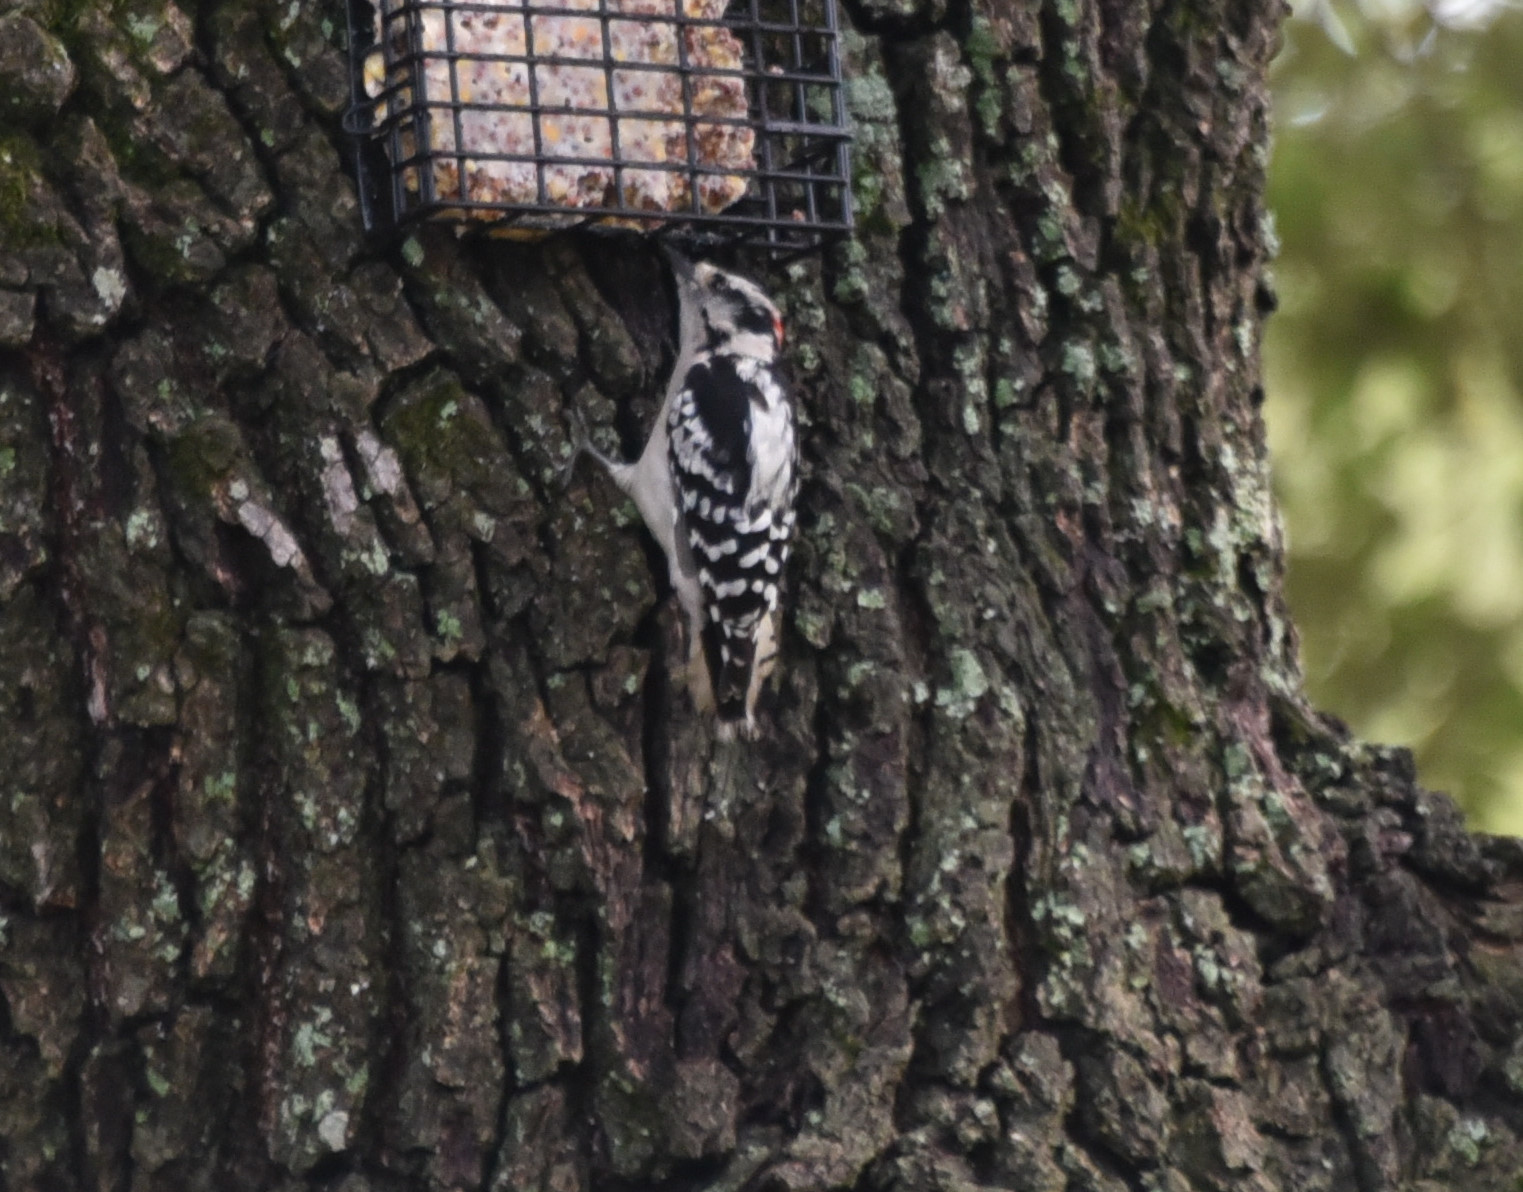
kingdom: Animalia
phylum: Chordata
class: Aves
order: Piciformes
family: Picidae
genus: Dryobates
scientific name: Dryobates pubescens
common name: Downy woodpecker
